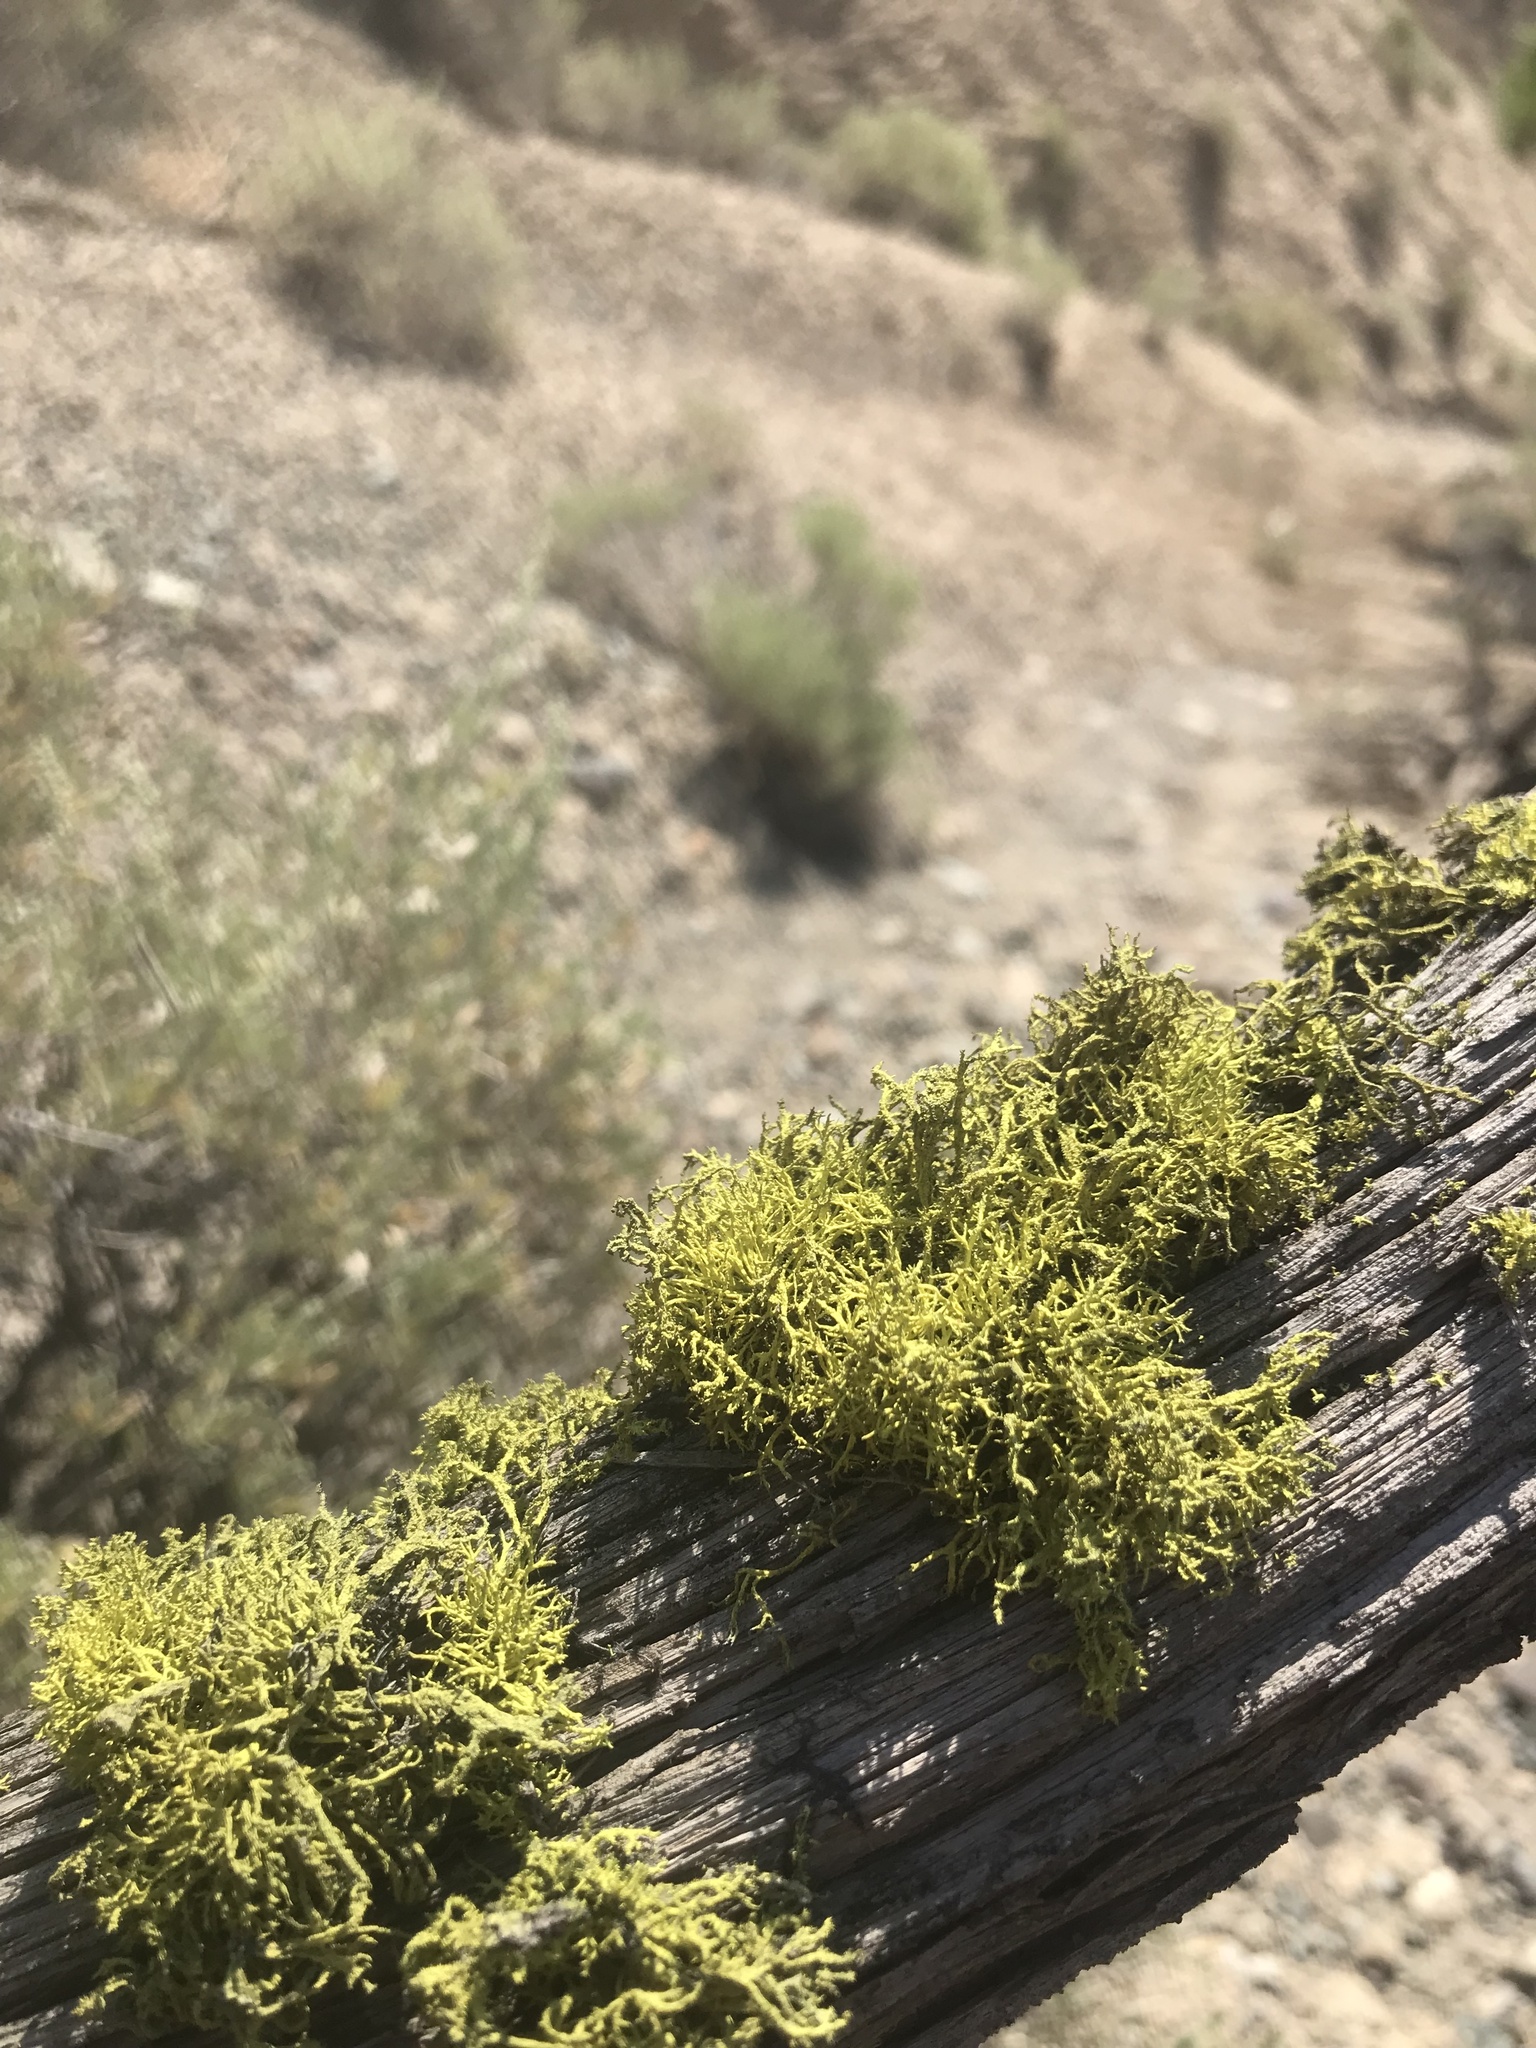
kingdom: Fungi
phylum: Ascomycota
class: Lecanoromycetes
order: Lecanorales
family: Parmeliaceae
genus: Letharia
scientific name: Letharia vulpina
